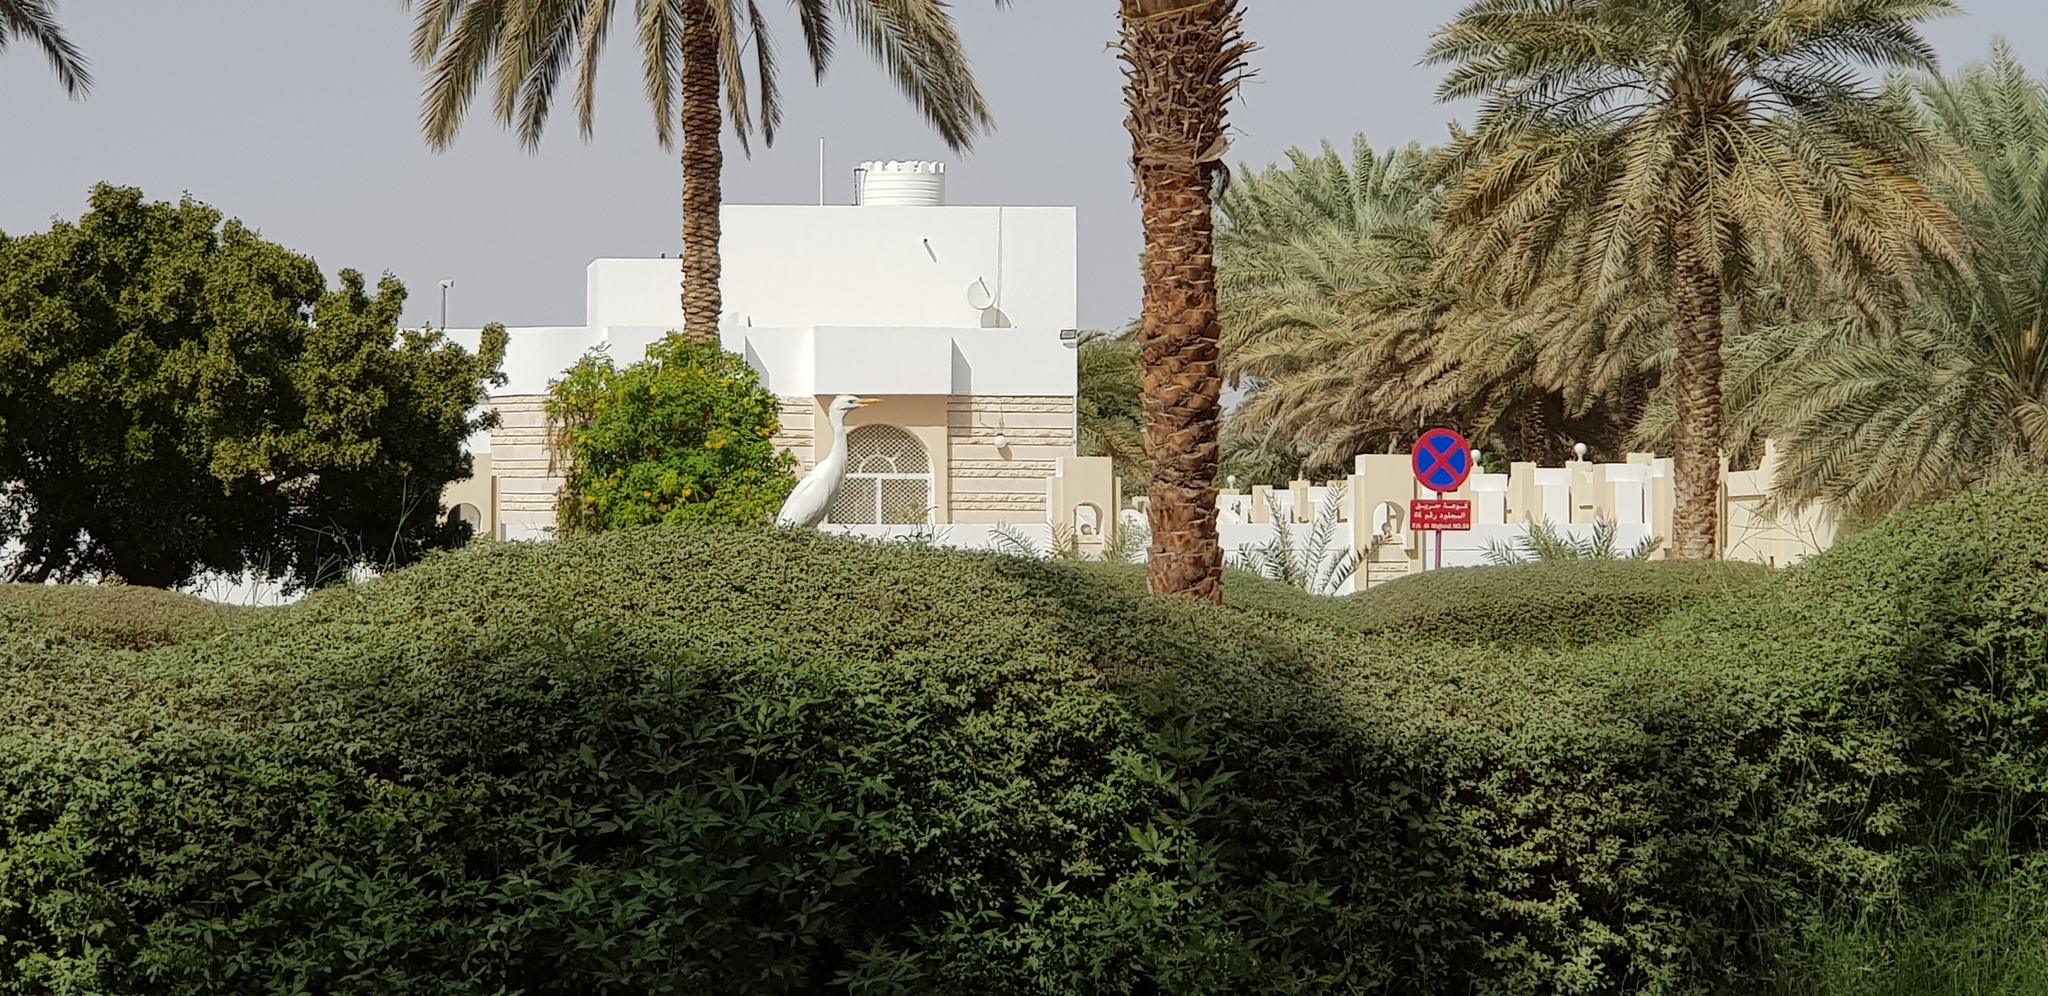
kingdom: Animalia
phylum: Chordata
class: Aves
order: Pelecaniformes
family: Ardeidae
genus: Bubulcus
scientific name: Bubulcus ibis
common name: Cattle egret
